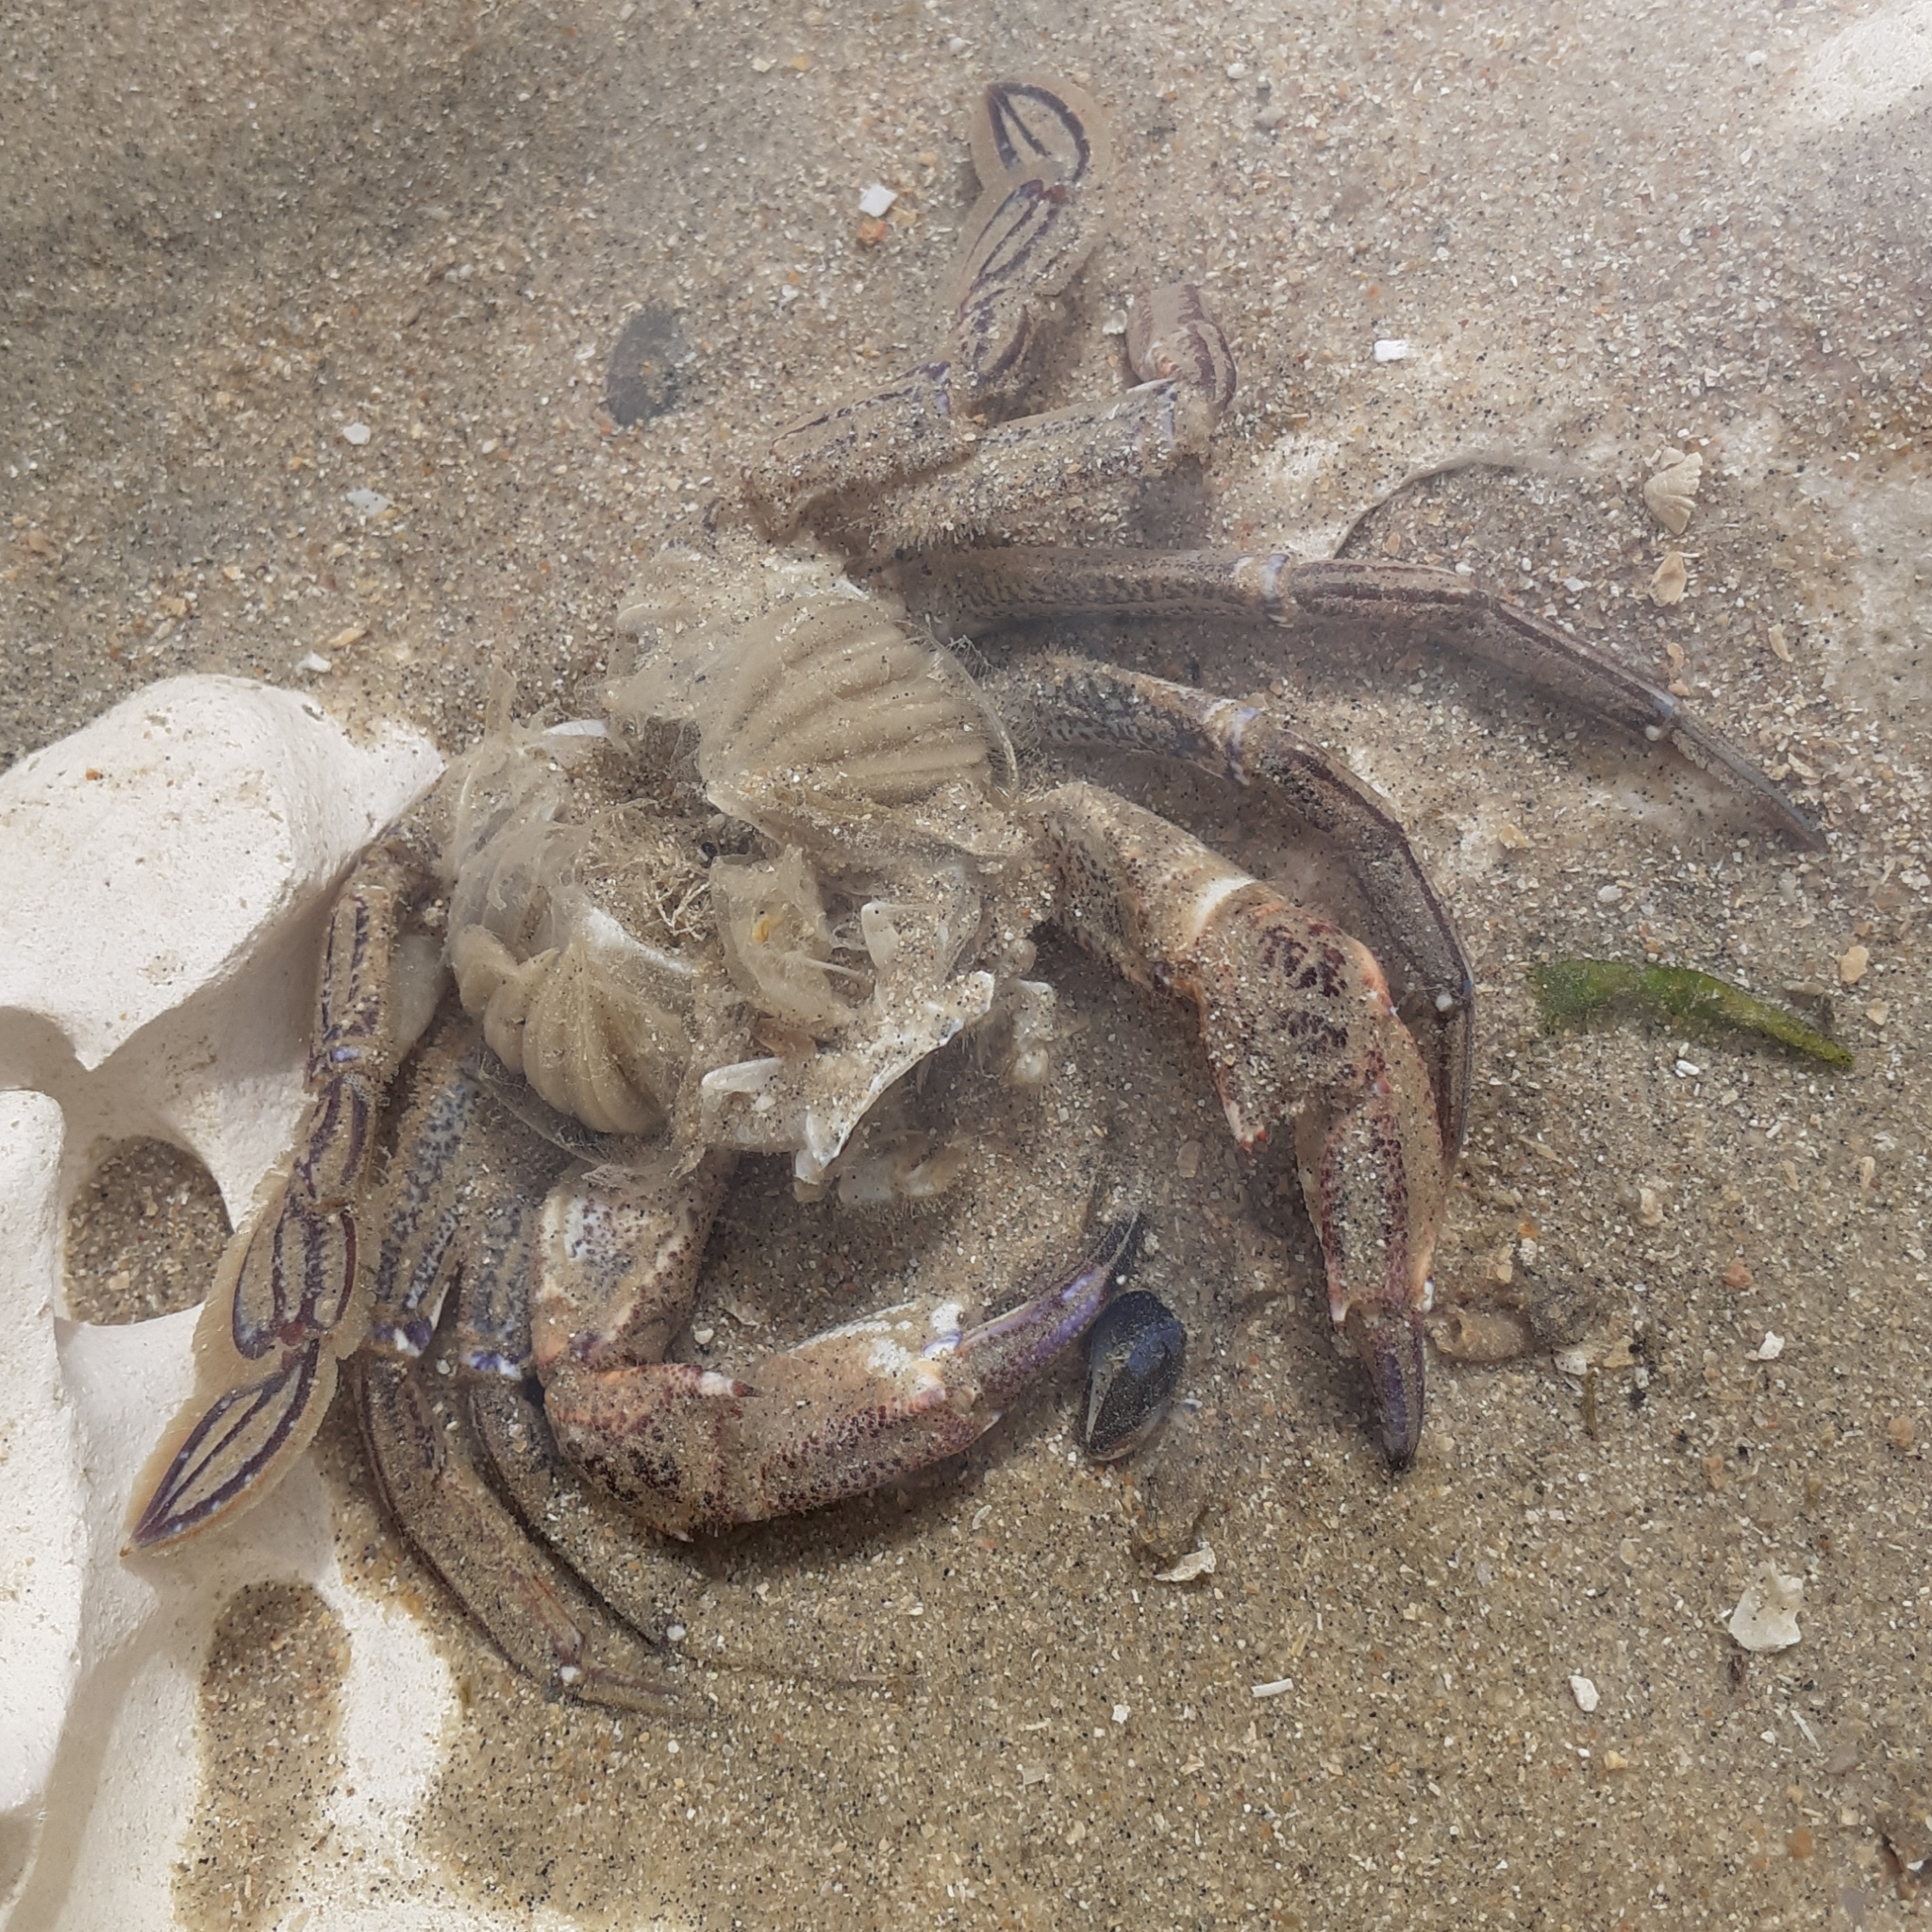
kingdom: Animalia
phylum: Arthropoda
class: Malacostraca
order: Decapoda
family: Polybiidae
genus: Necora
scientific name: Necora puber
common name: Velvet swimming crab
